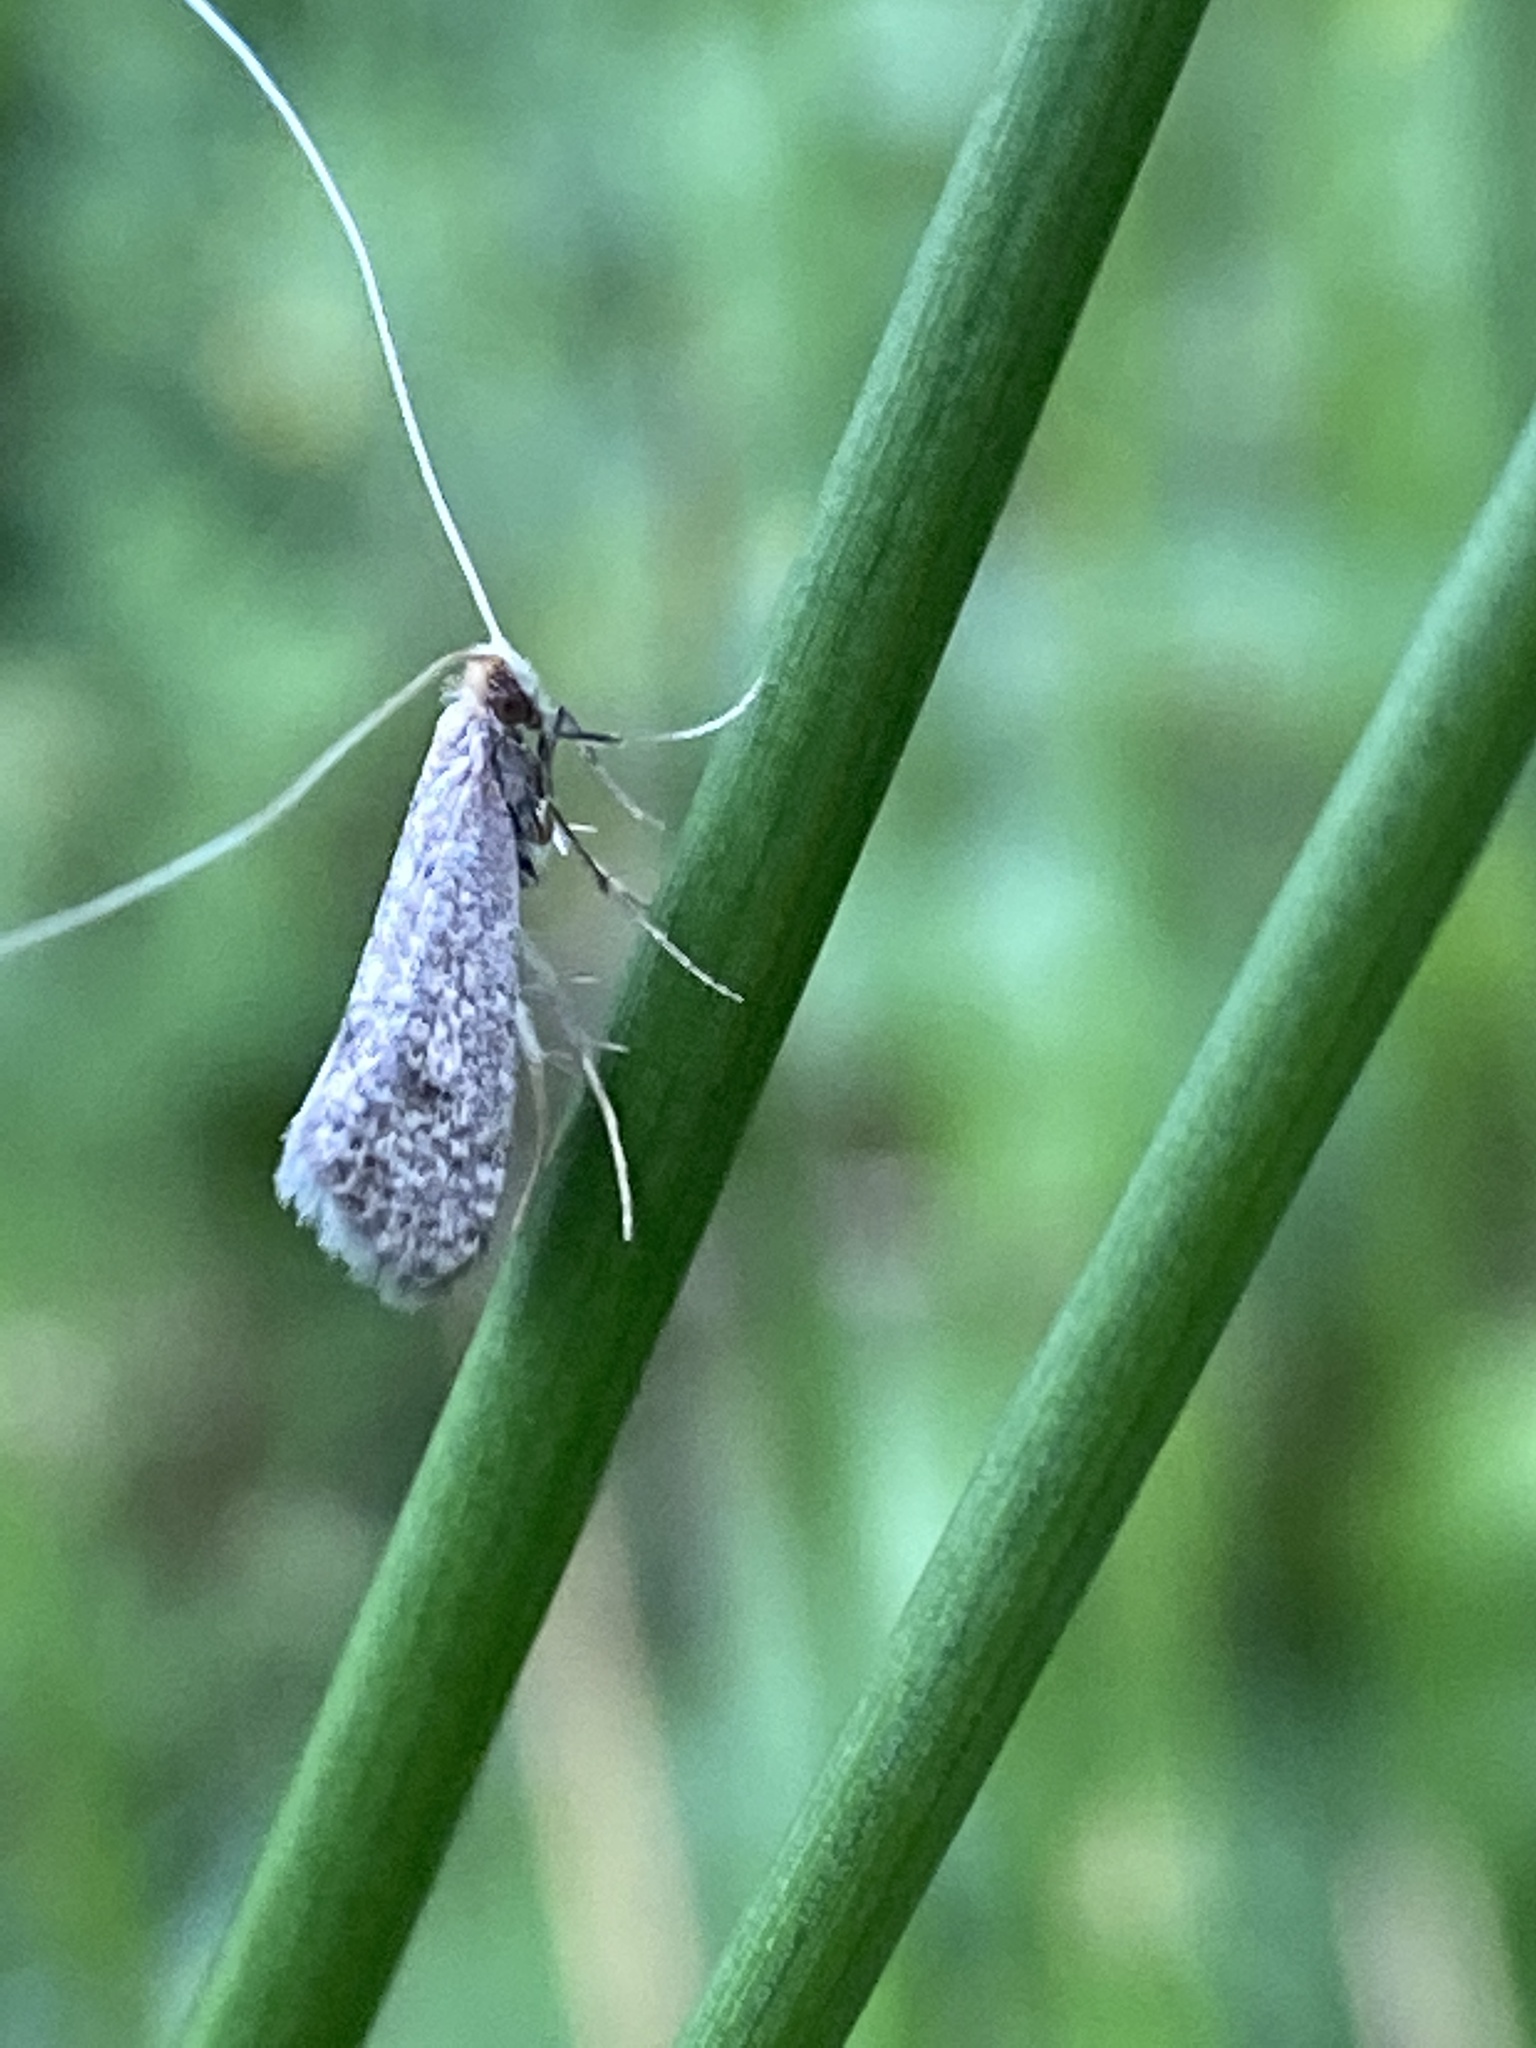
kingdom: Animalia
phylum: Arthropoda
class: Insecta
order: Lepidoptera
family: Adelidae
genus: Nematopogon
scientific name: Nematopogon robertella
